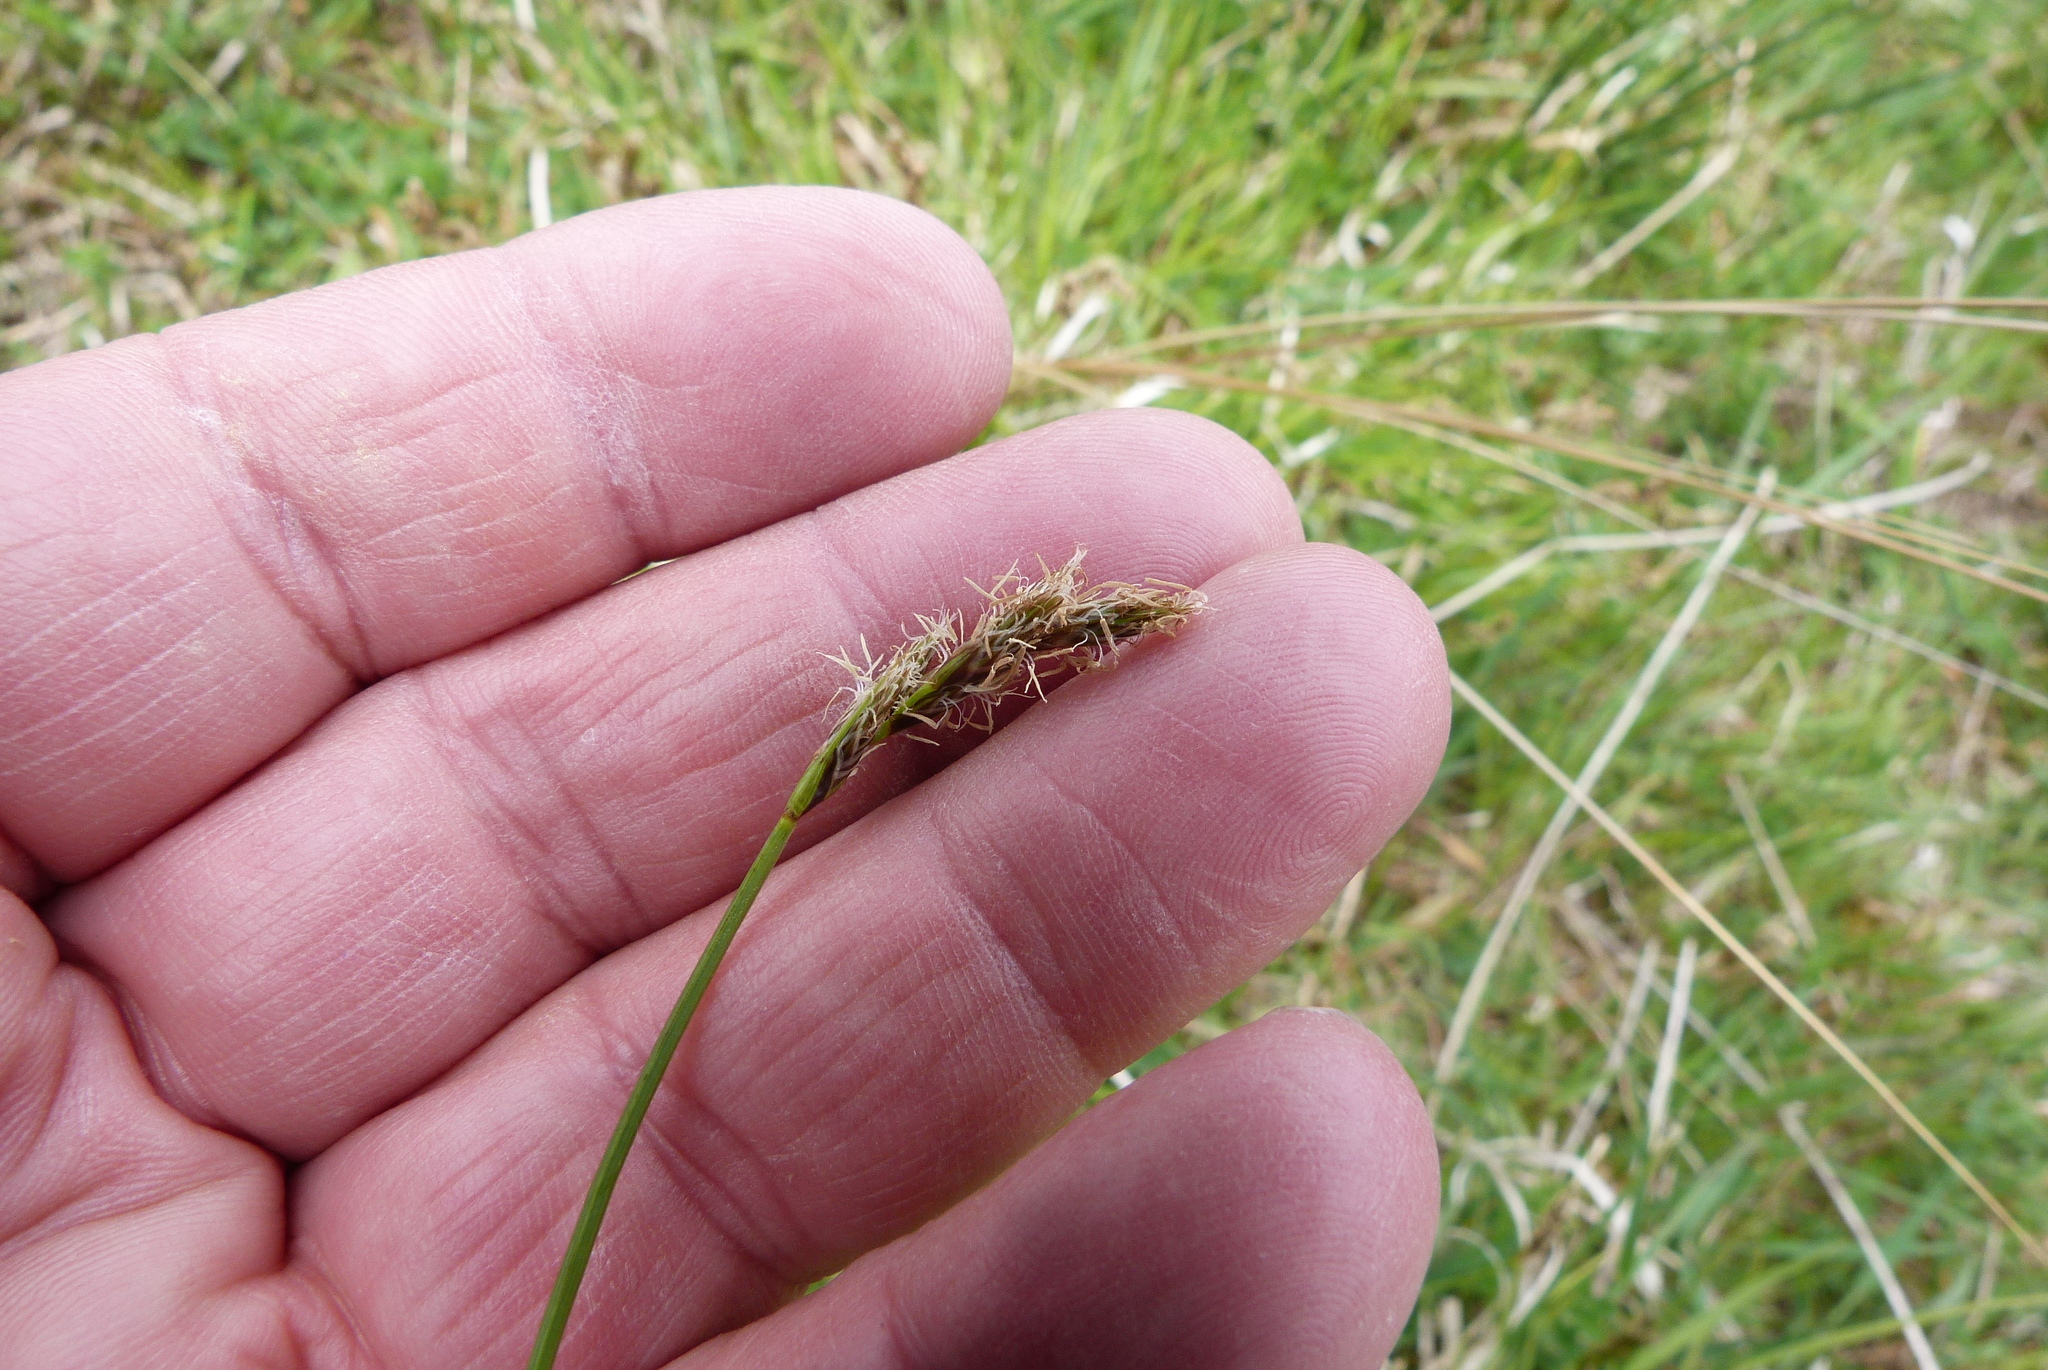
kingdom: Plantae
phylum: Tracheophyta
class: Liliopsida
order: Poales
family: Cyperaceae
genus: Carex
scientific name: Carex leporina
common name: Oval sedge
